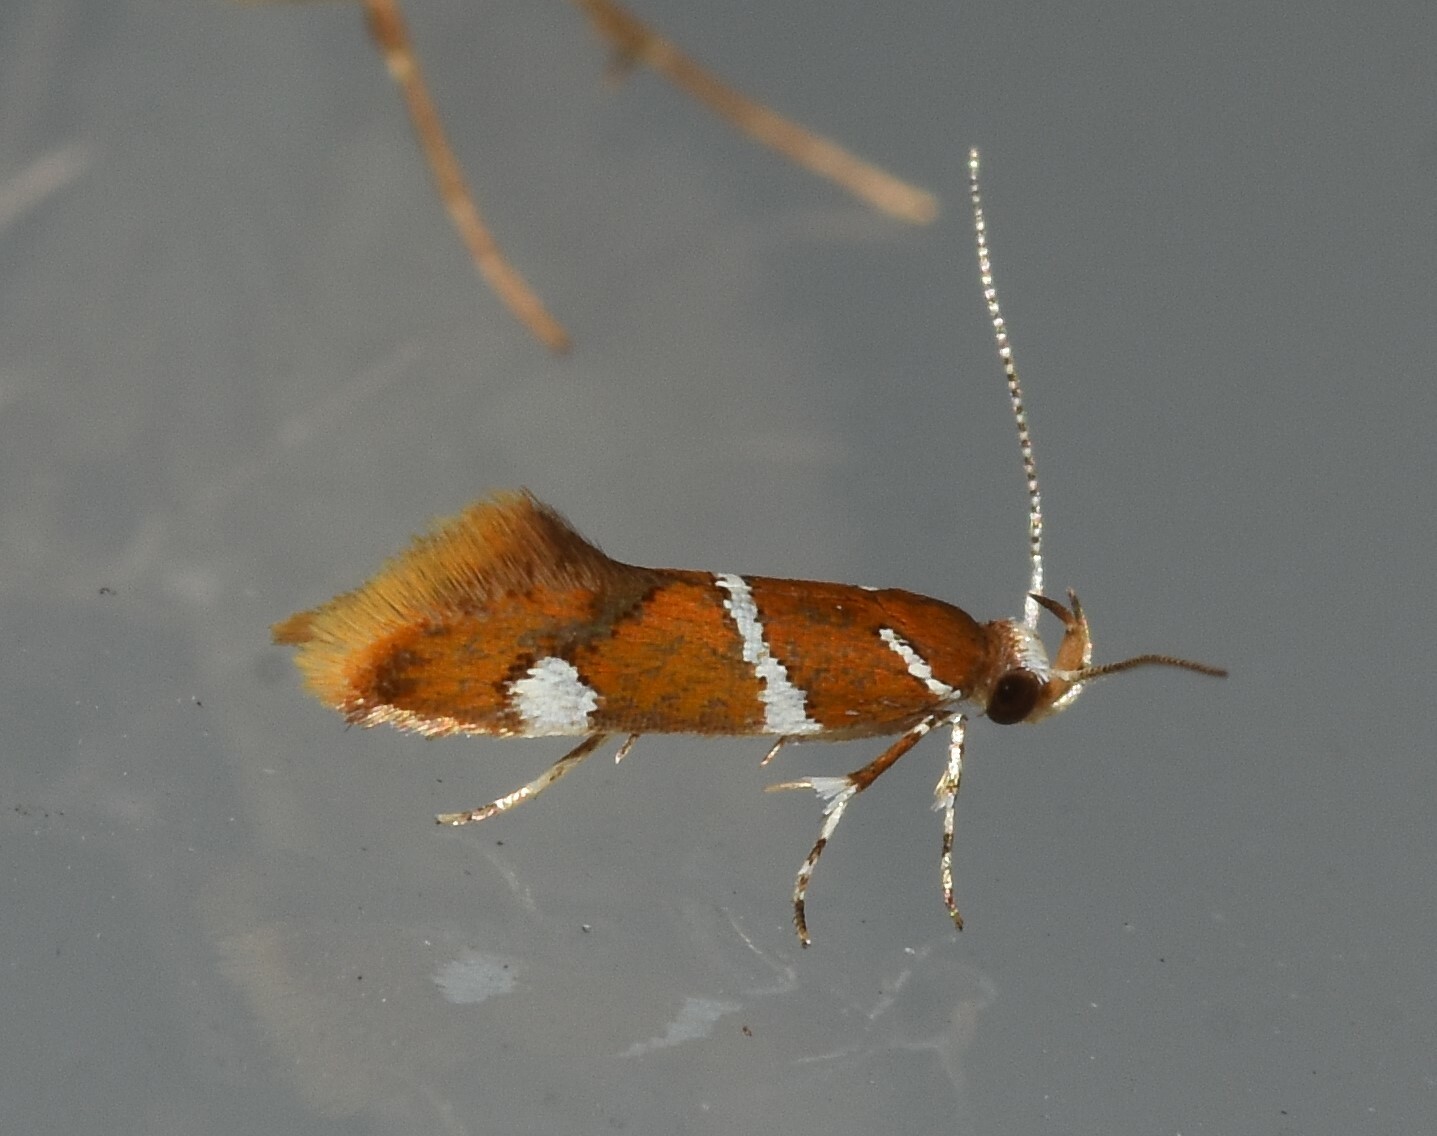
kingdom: Animalia
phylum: Arthropoda
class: Insecta
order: Lepidoptera
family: Oecophoridae
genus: Promalactis
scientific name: Promalactis suzukiella
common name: Moth
